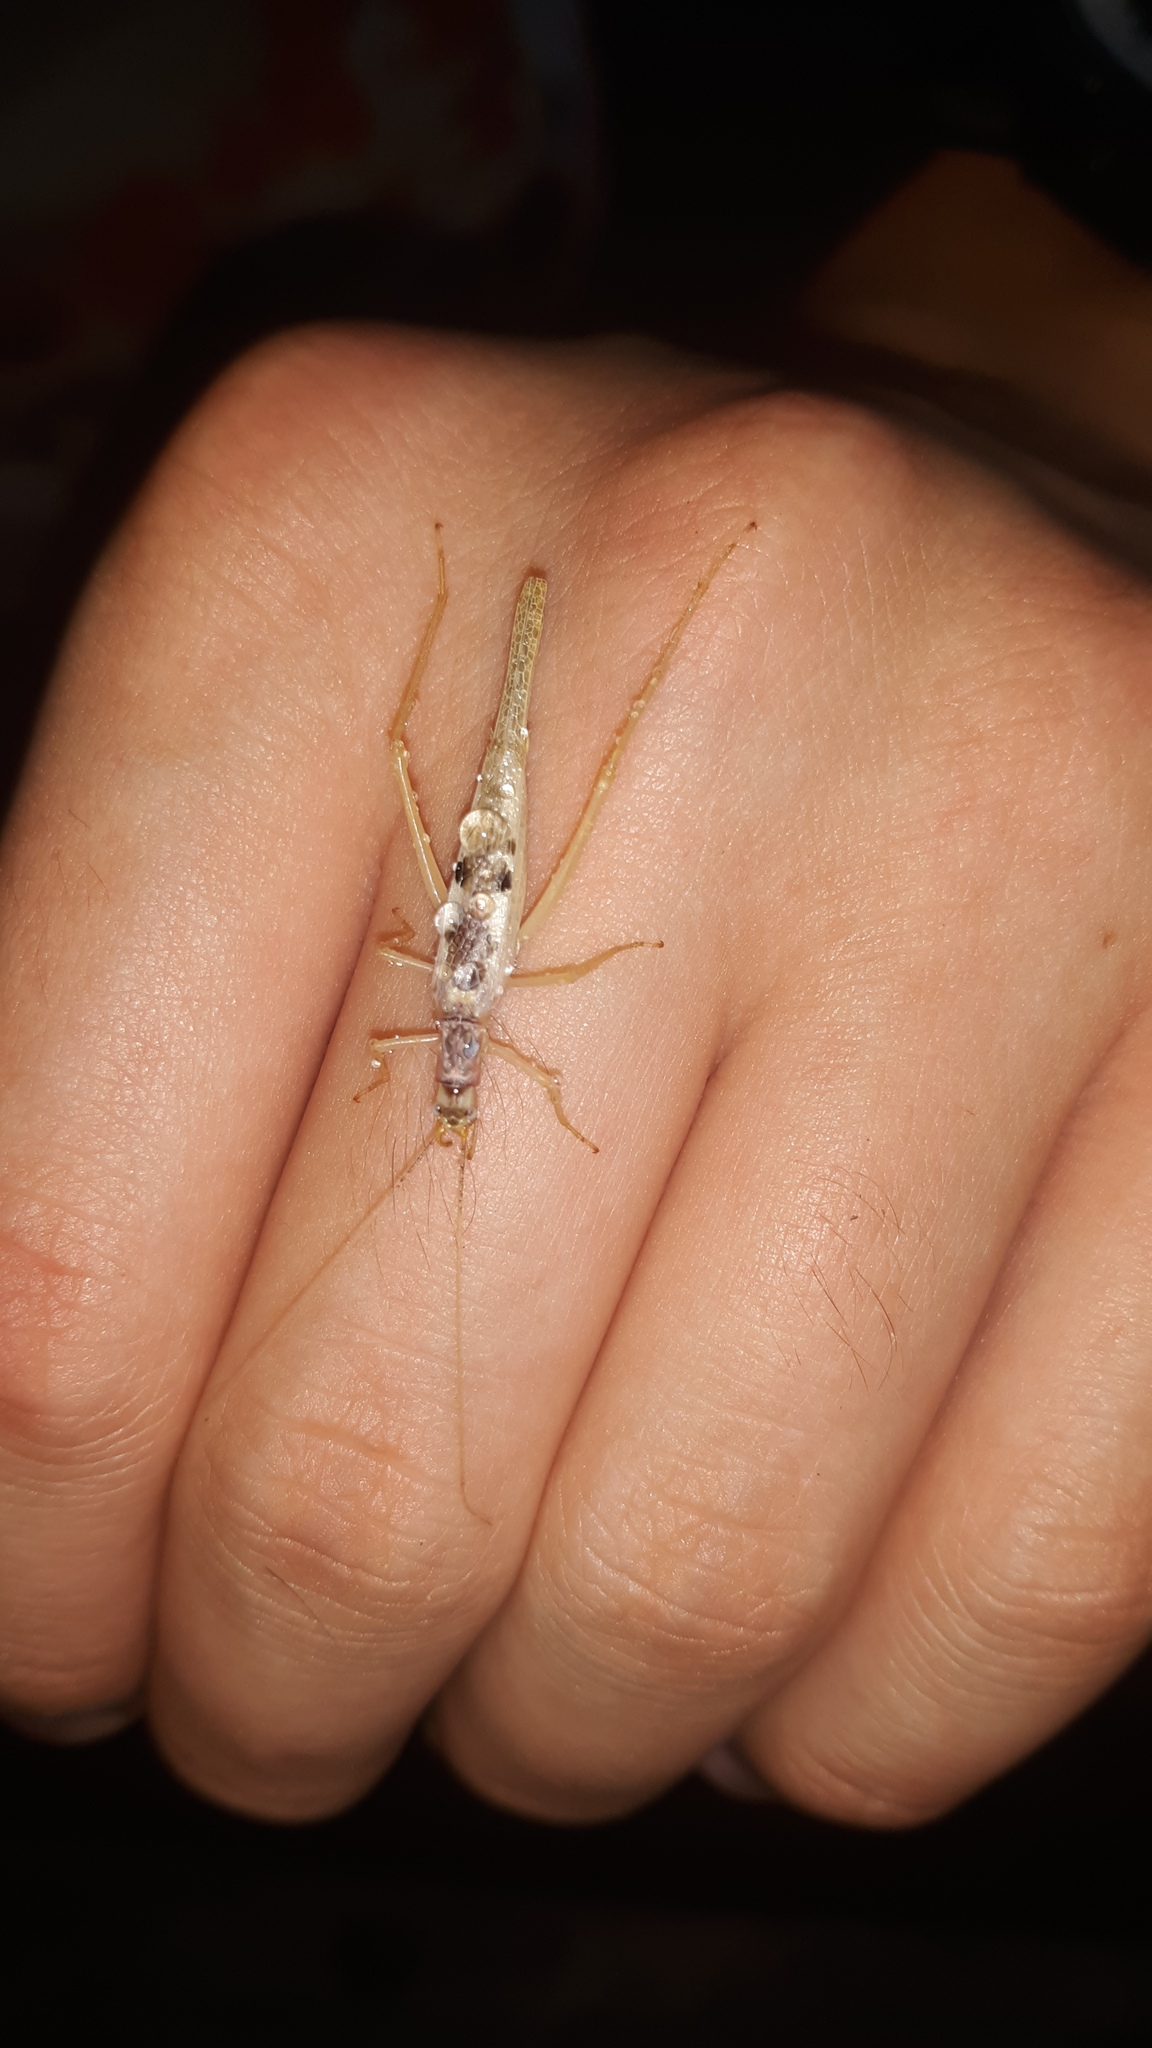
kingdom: Animalia
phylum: Arthropoda
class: Insecta
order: Orthoptera
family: Gryllidae
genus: Neoxabea
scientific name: Neoxabea bipunctata
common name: Two-spotted tree cricket
